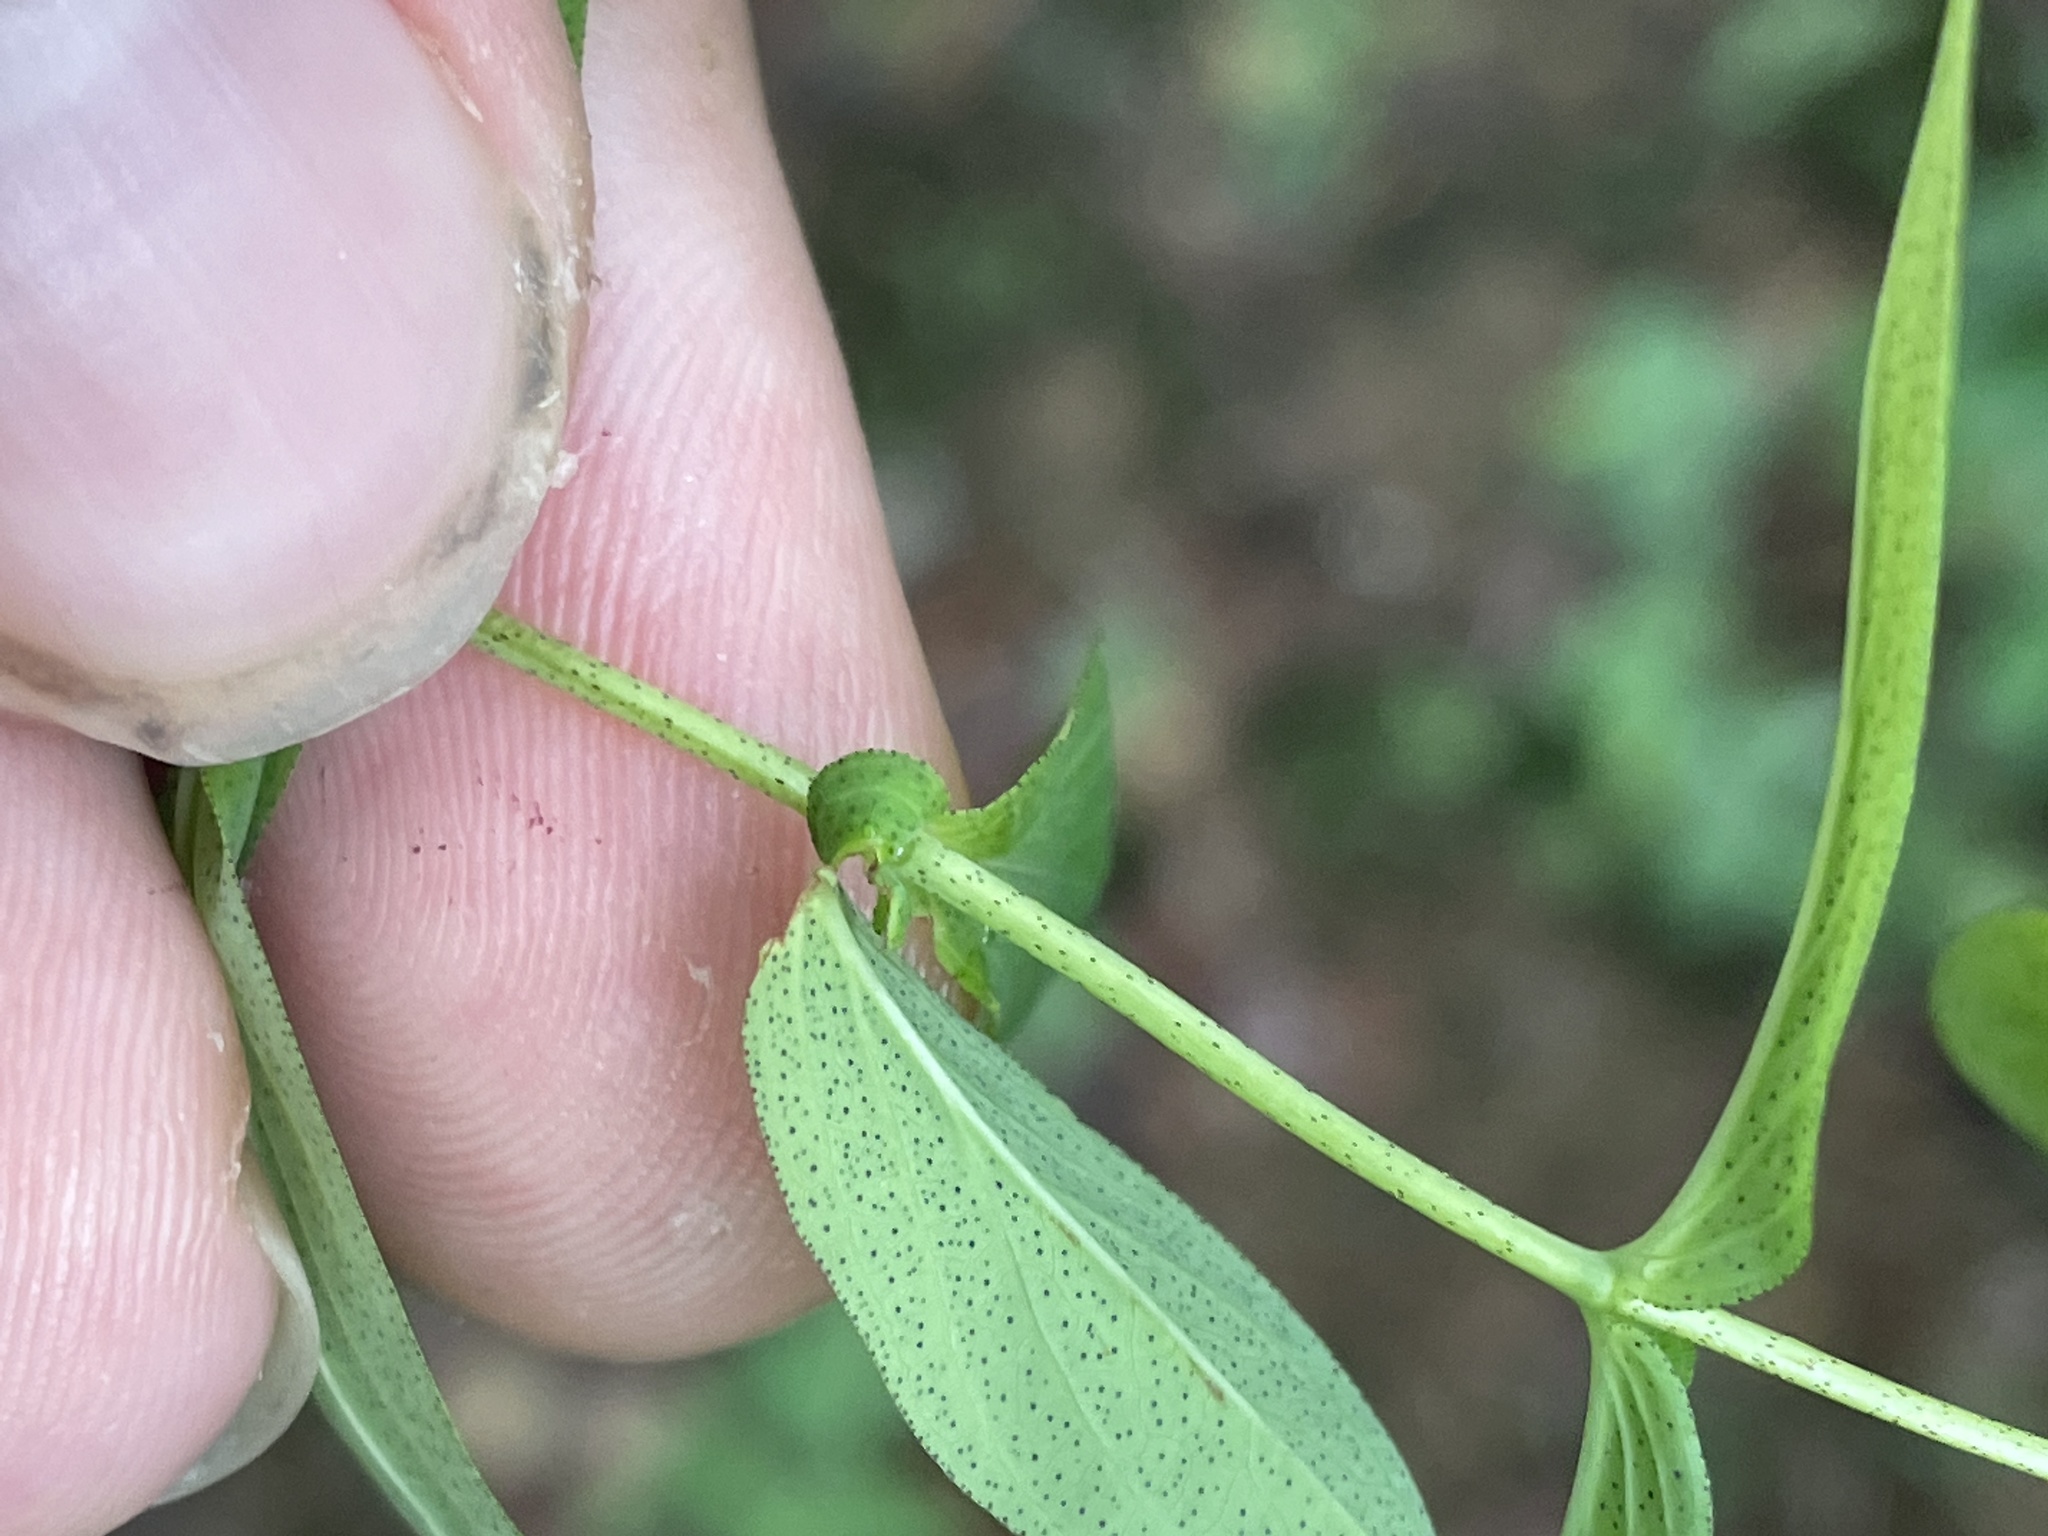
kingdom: Plantae
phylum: Tracheophyta
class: Magnoliopsida
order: Malpighiales
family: Hypericaceae
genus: Hypericum
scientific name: Hypericum punctatum
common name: Spotted st. john's-wort
